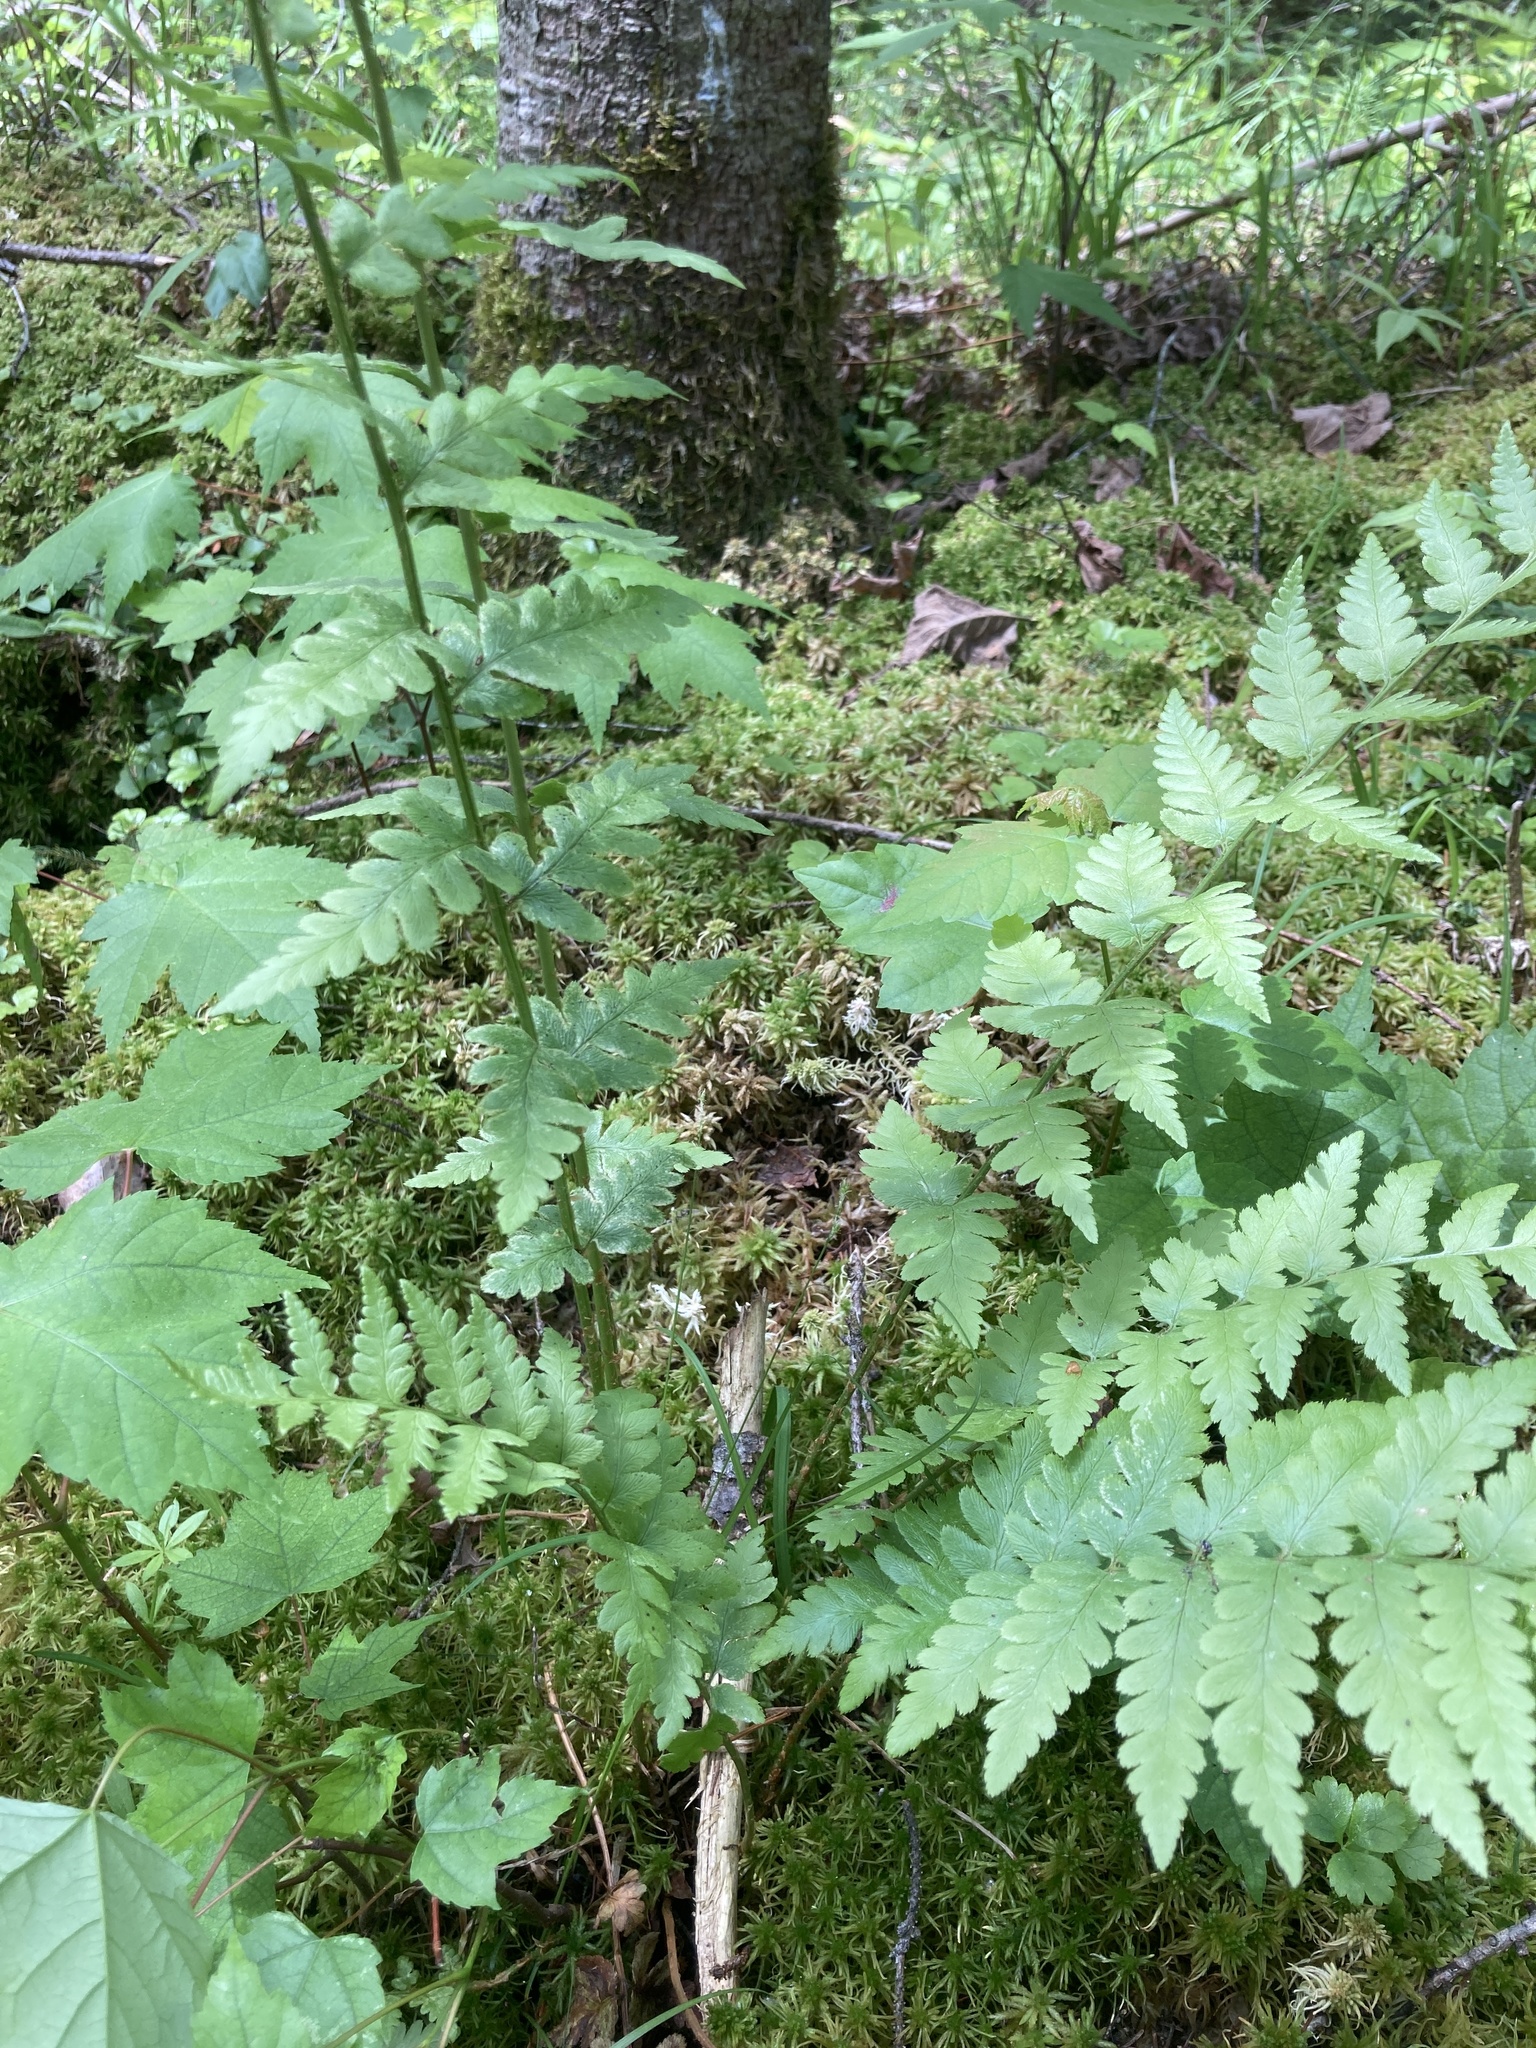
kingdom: Plantae
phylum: Tracheophyta
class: Polypodiopsida
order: Polypodiales
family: Dryopteridaceae
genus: Dryopteris
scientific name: Dryopteris cristata
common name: Crested wood fern
